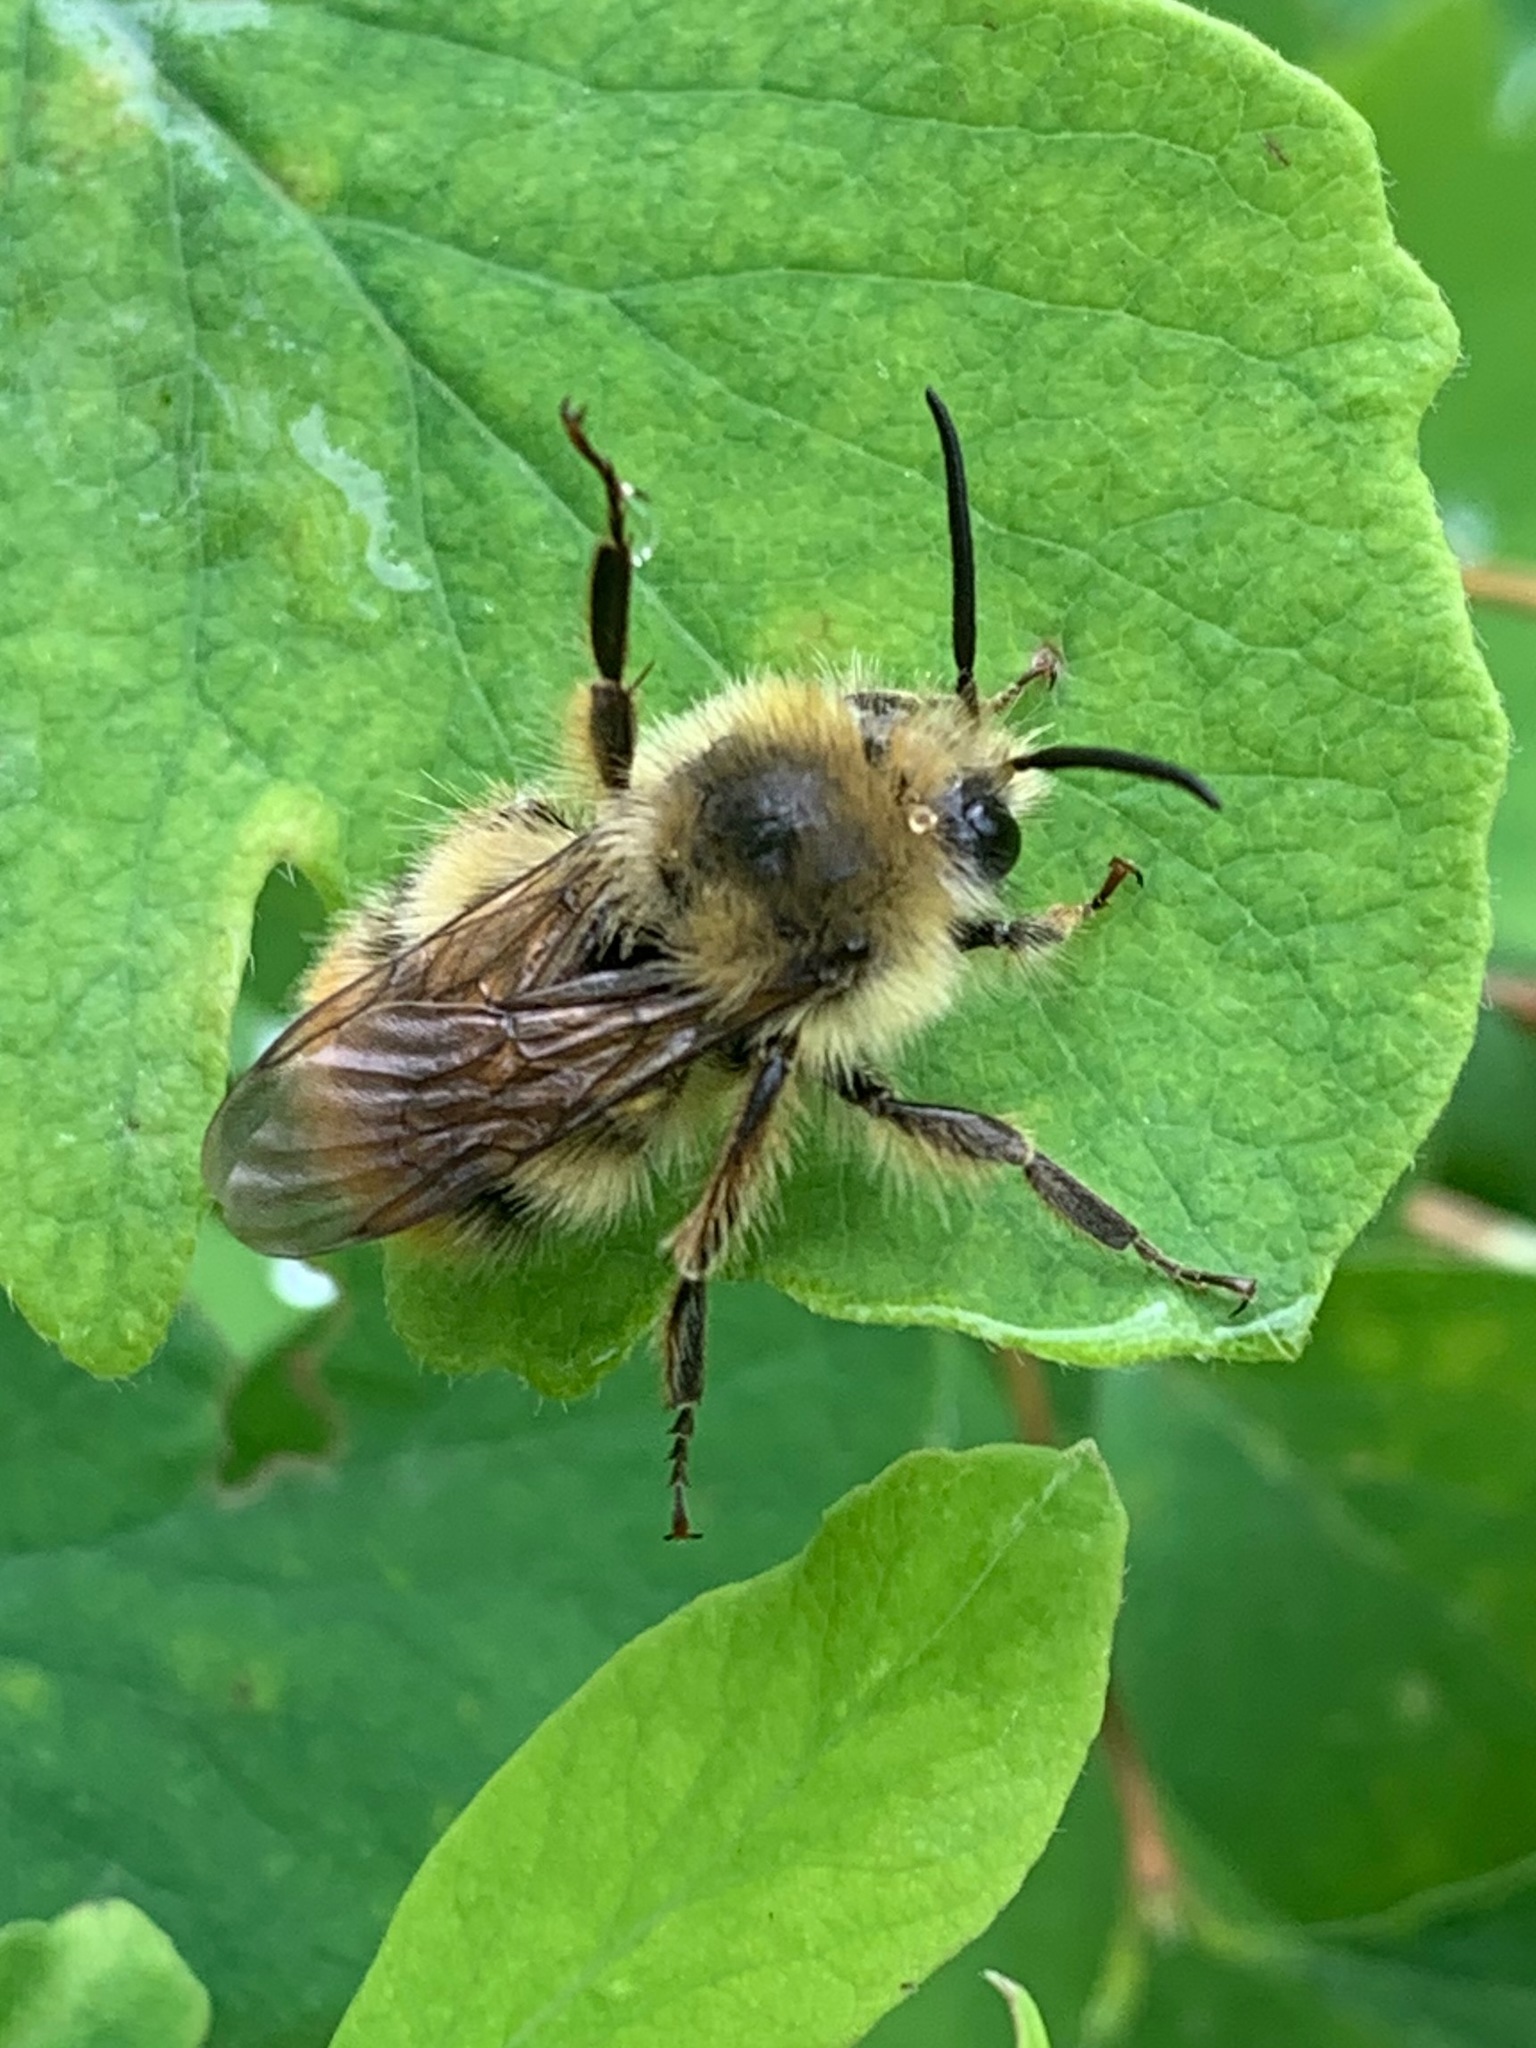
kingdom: Animalia
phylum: Arthropoda
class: Insecta
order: Hymenoptera
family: Apidae
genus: Bombus
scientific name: Bombus mixtus
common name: Fuzzy-horned bumble bee
